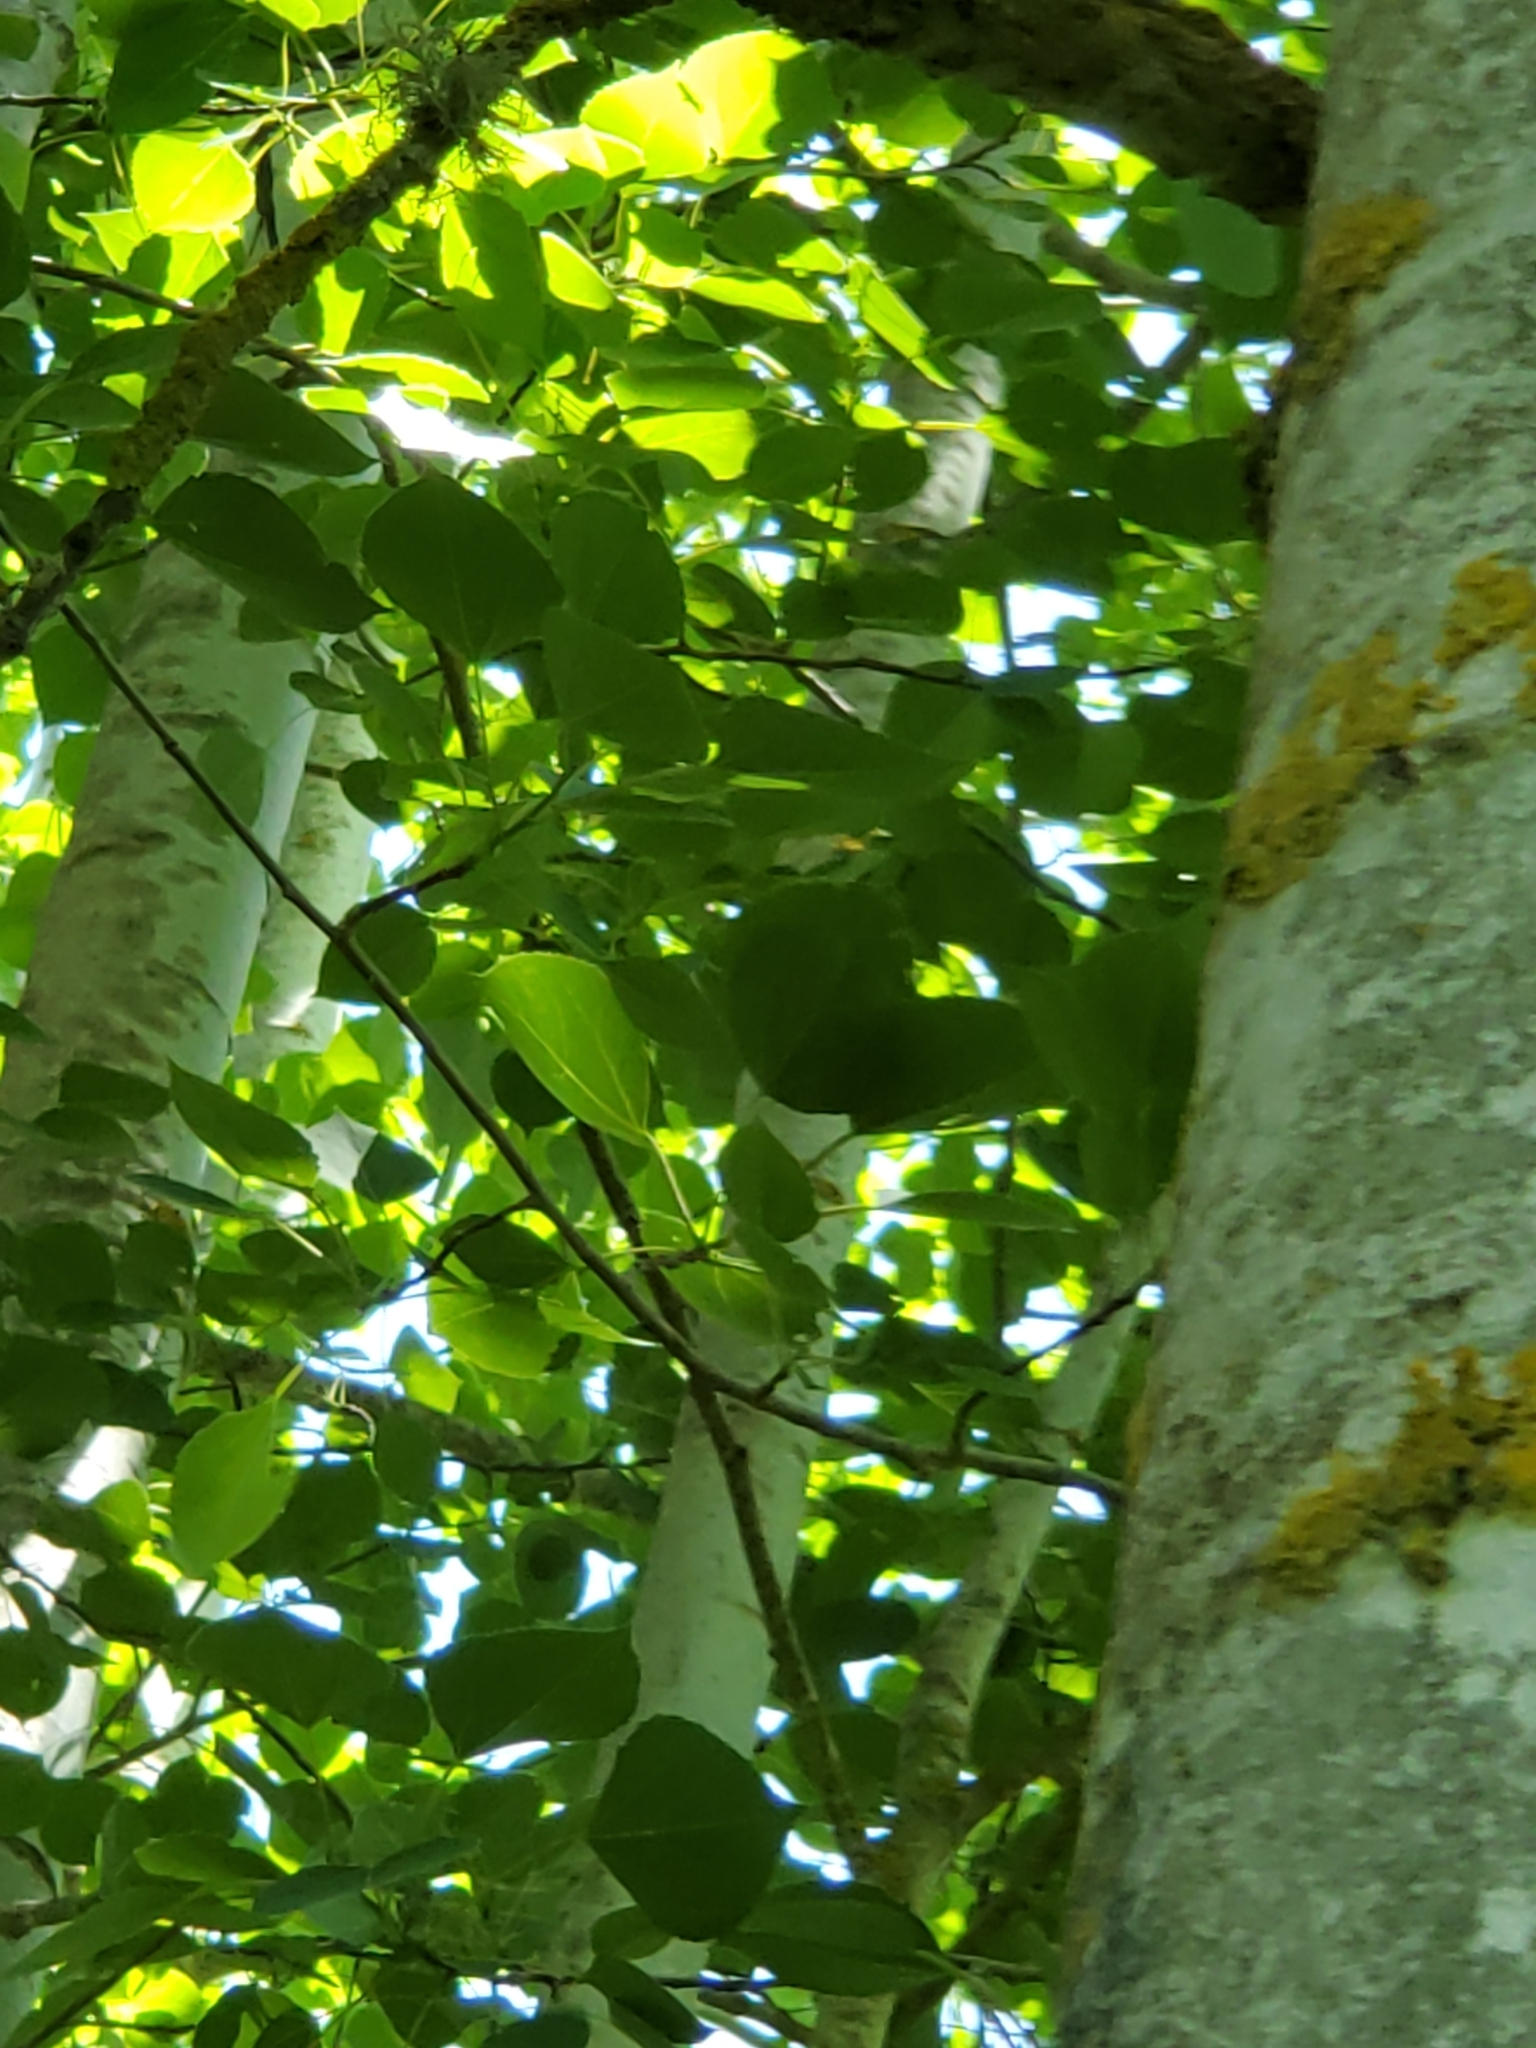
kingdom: Plantae
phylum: Tracheophyta
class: Magnoliopsida
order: Malpighiales
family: Salicaceae
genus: Populus
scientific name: Populus tremuloides
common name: Quaking aspen
